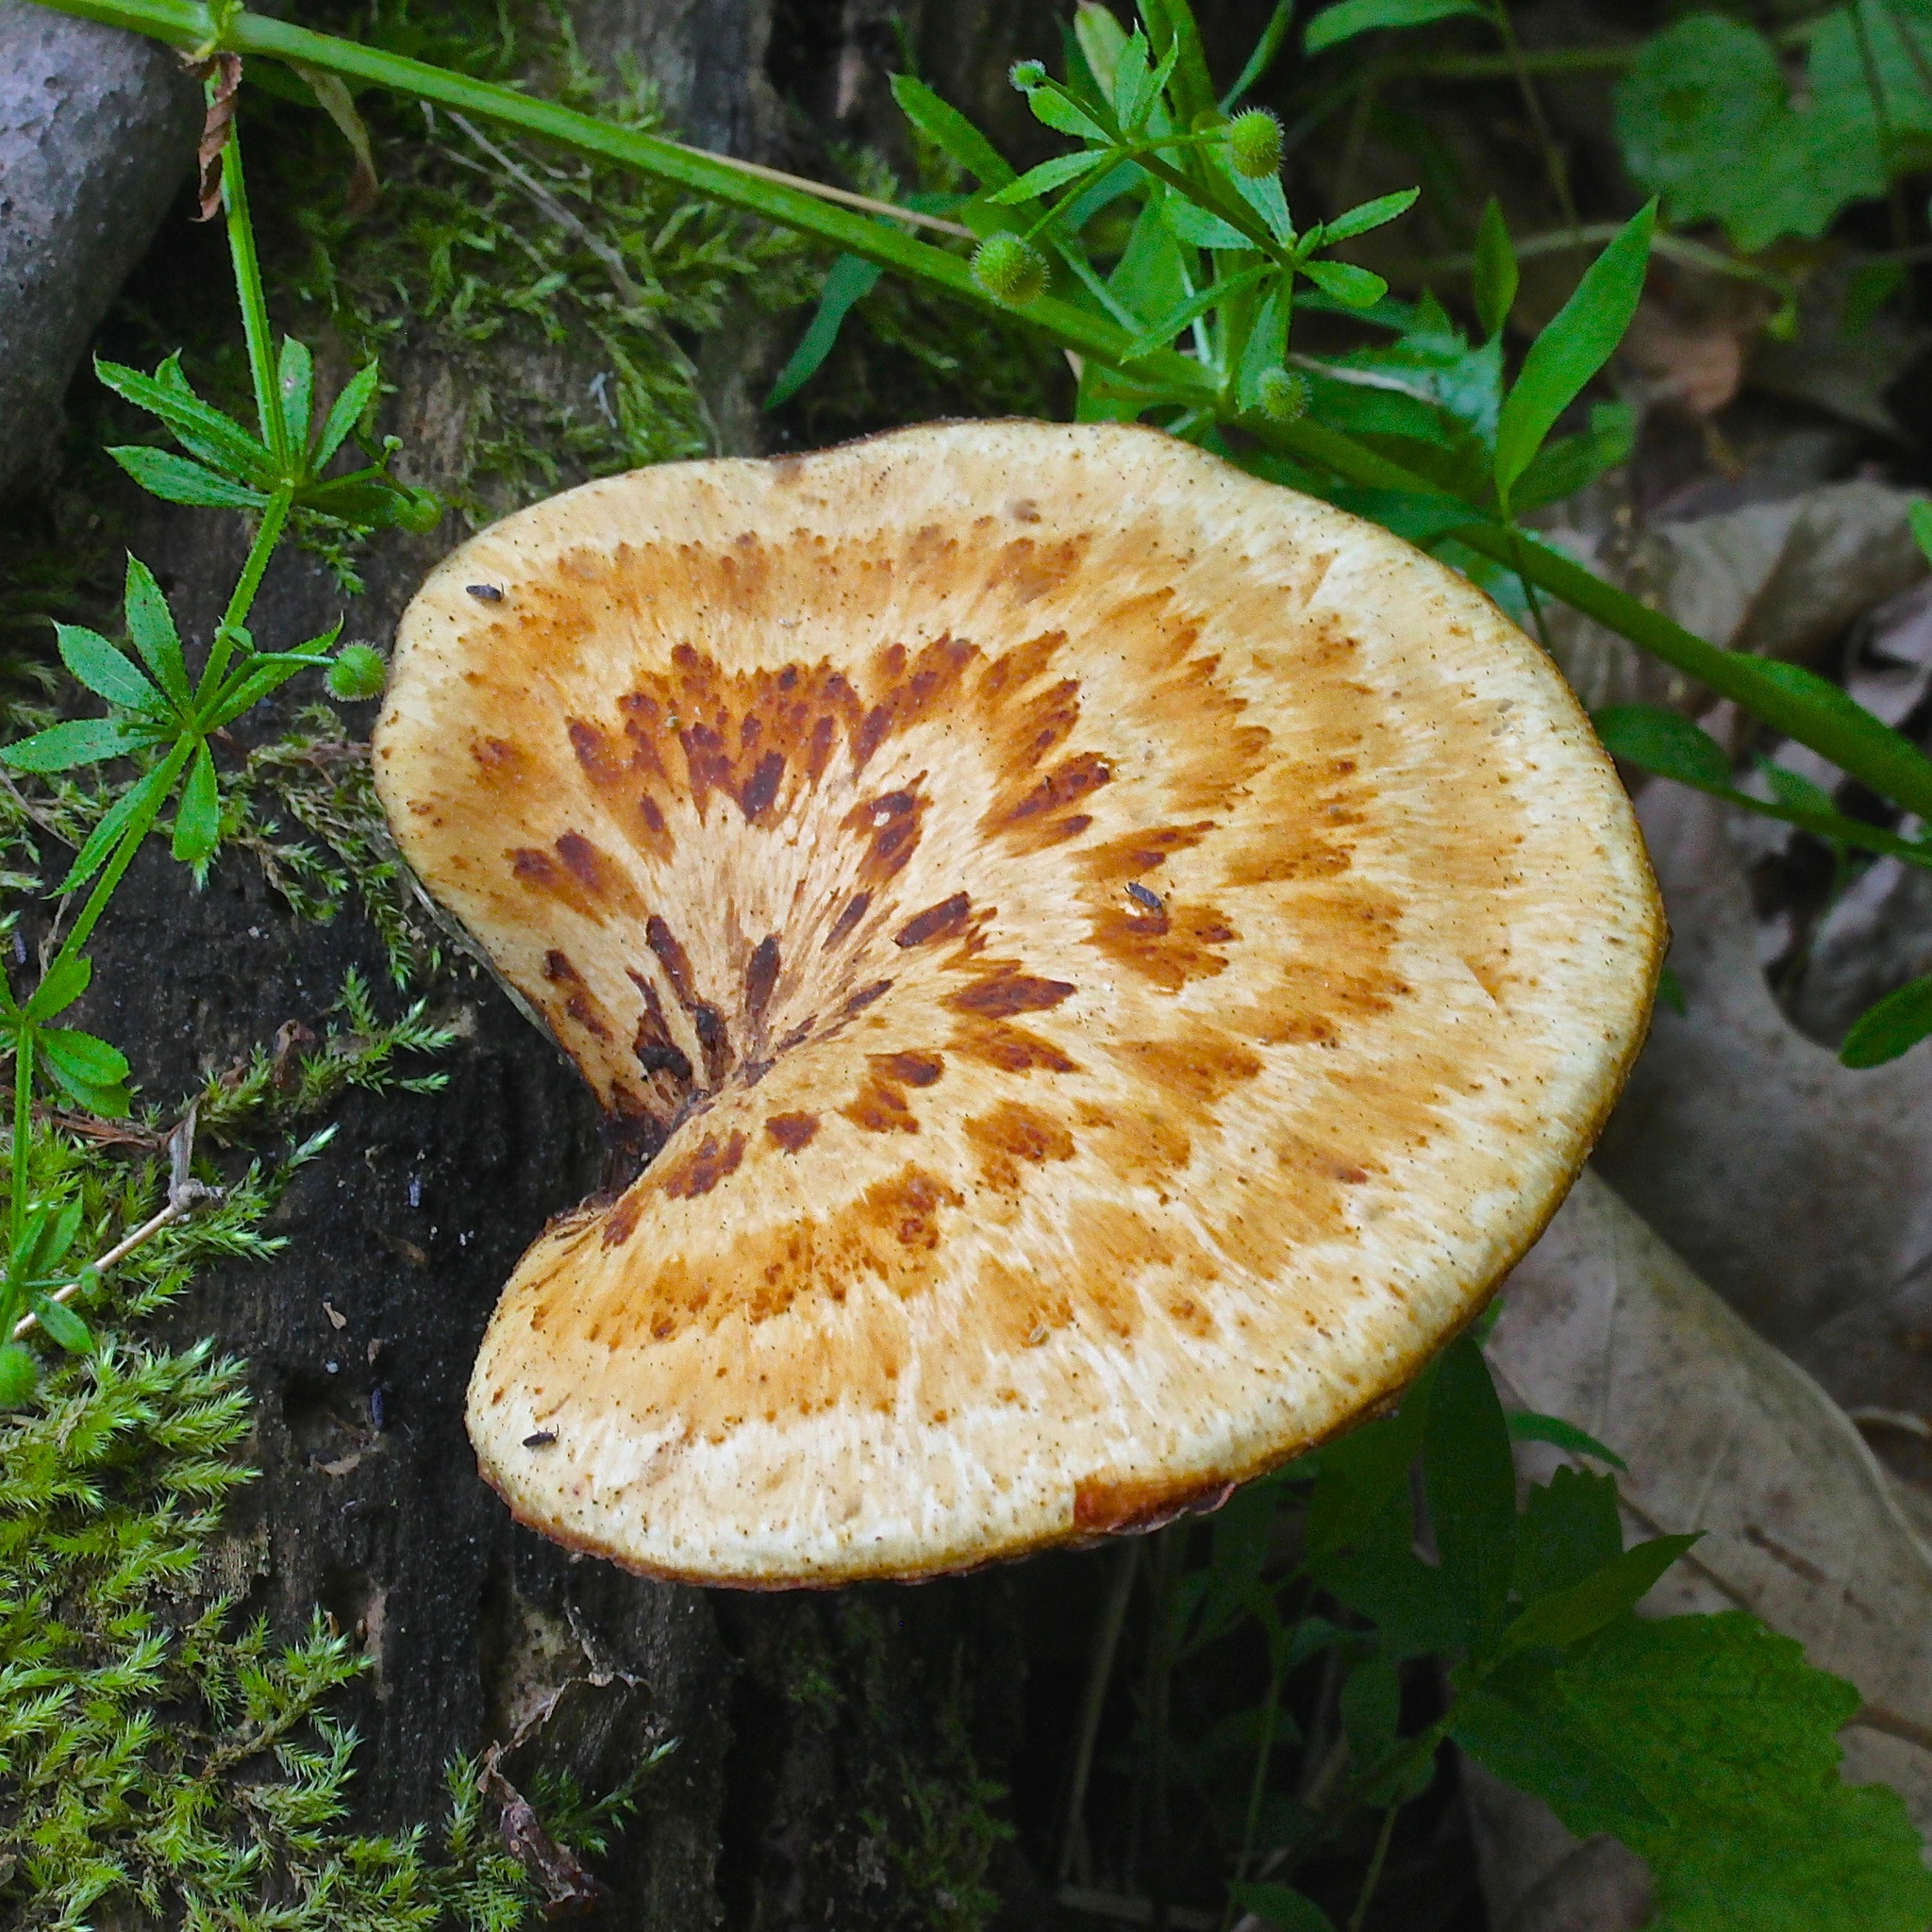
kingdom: Fungi
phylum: Basidiomycota
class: Agaricomycetes
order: Polyporales
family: Polyporaceae
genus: Cerioporus
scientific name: Cerioporus squamosus
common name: Dryad's saddle
